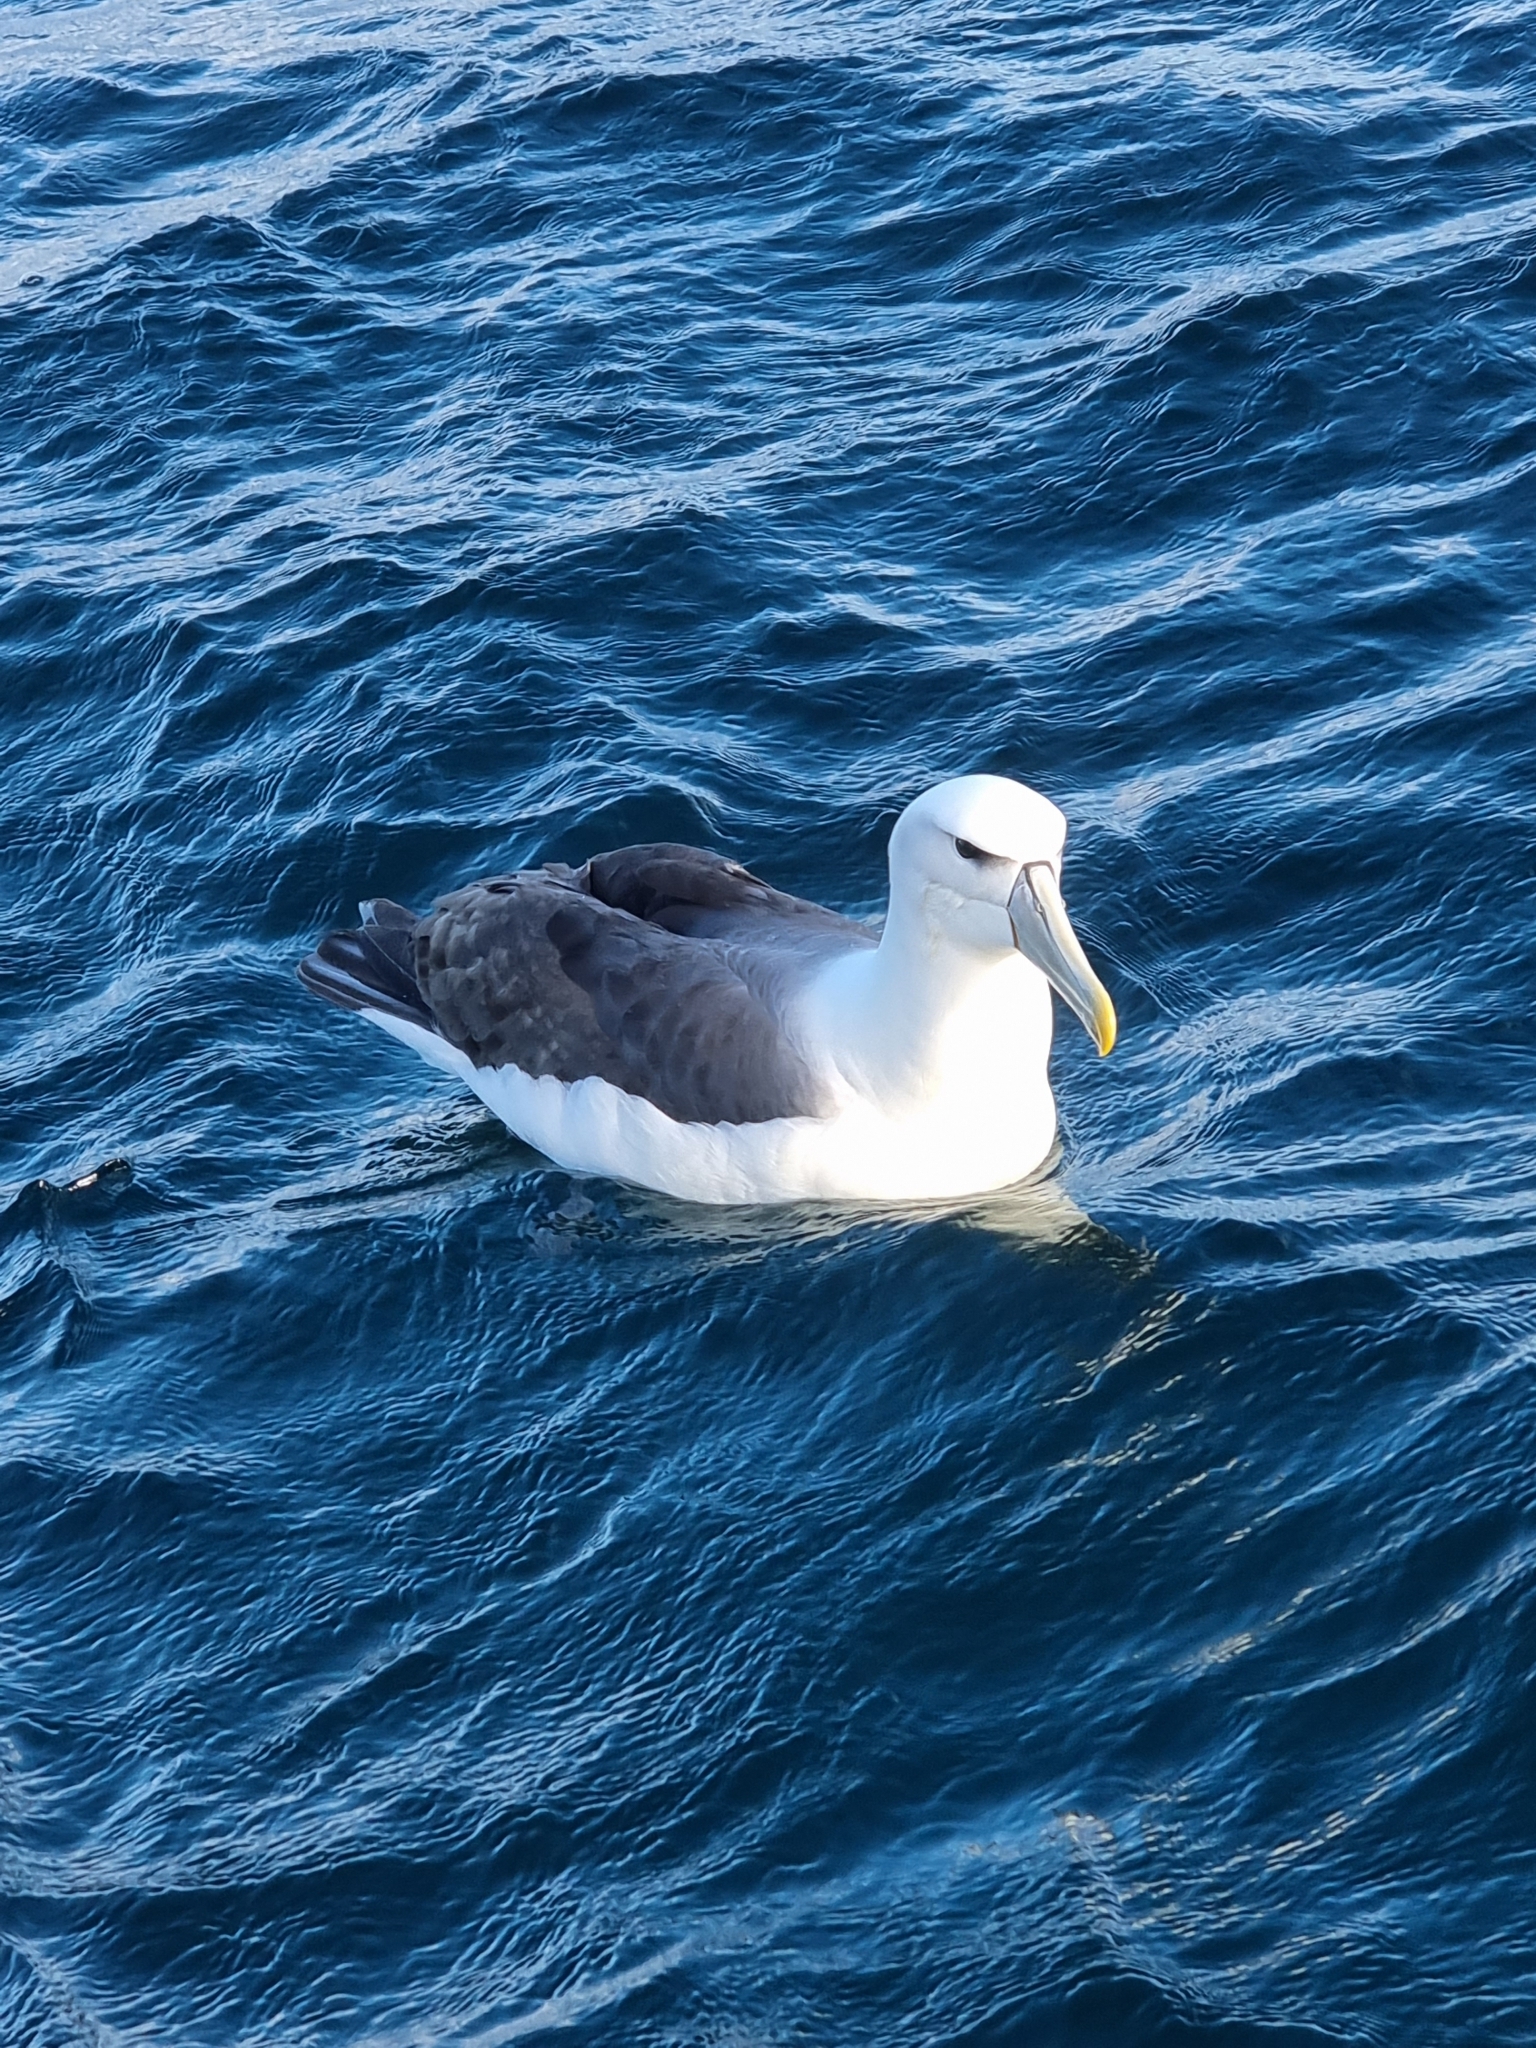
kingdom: Animalia
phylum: Chordata
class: Aves
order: Procellariiformes
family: Diomedeidae
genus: Thalassarche
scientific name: Thalassarche cauta
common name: Shy albatross
